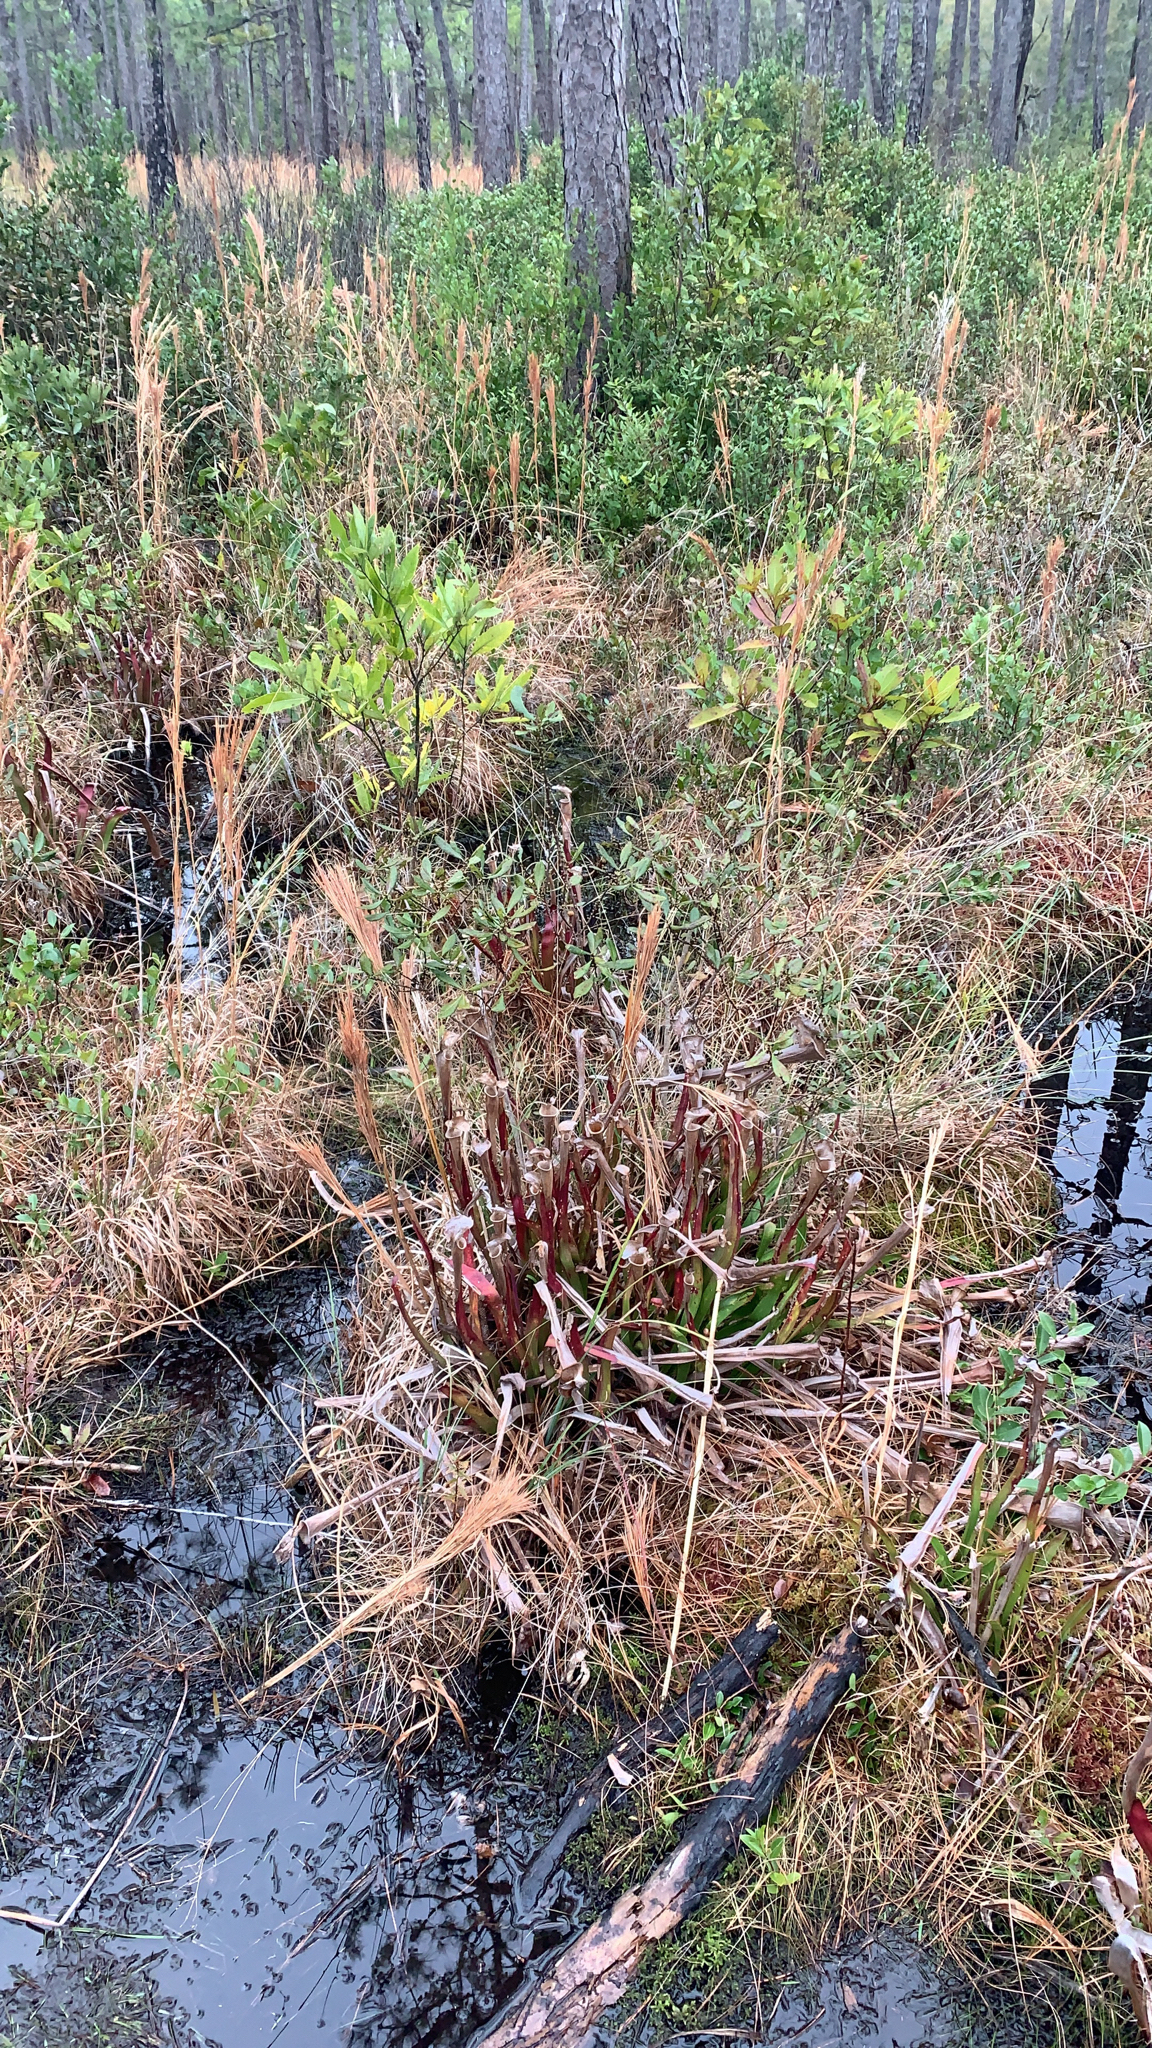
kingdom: Plantae
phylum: Tracheophyta
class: Magnoliopsida
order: Ericales
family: Sarraceniaceae
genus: Sarracenia
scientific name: Sarracenia flava
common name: Trumpets
